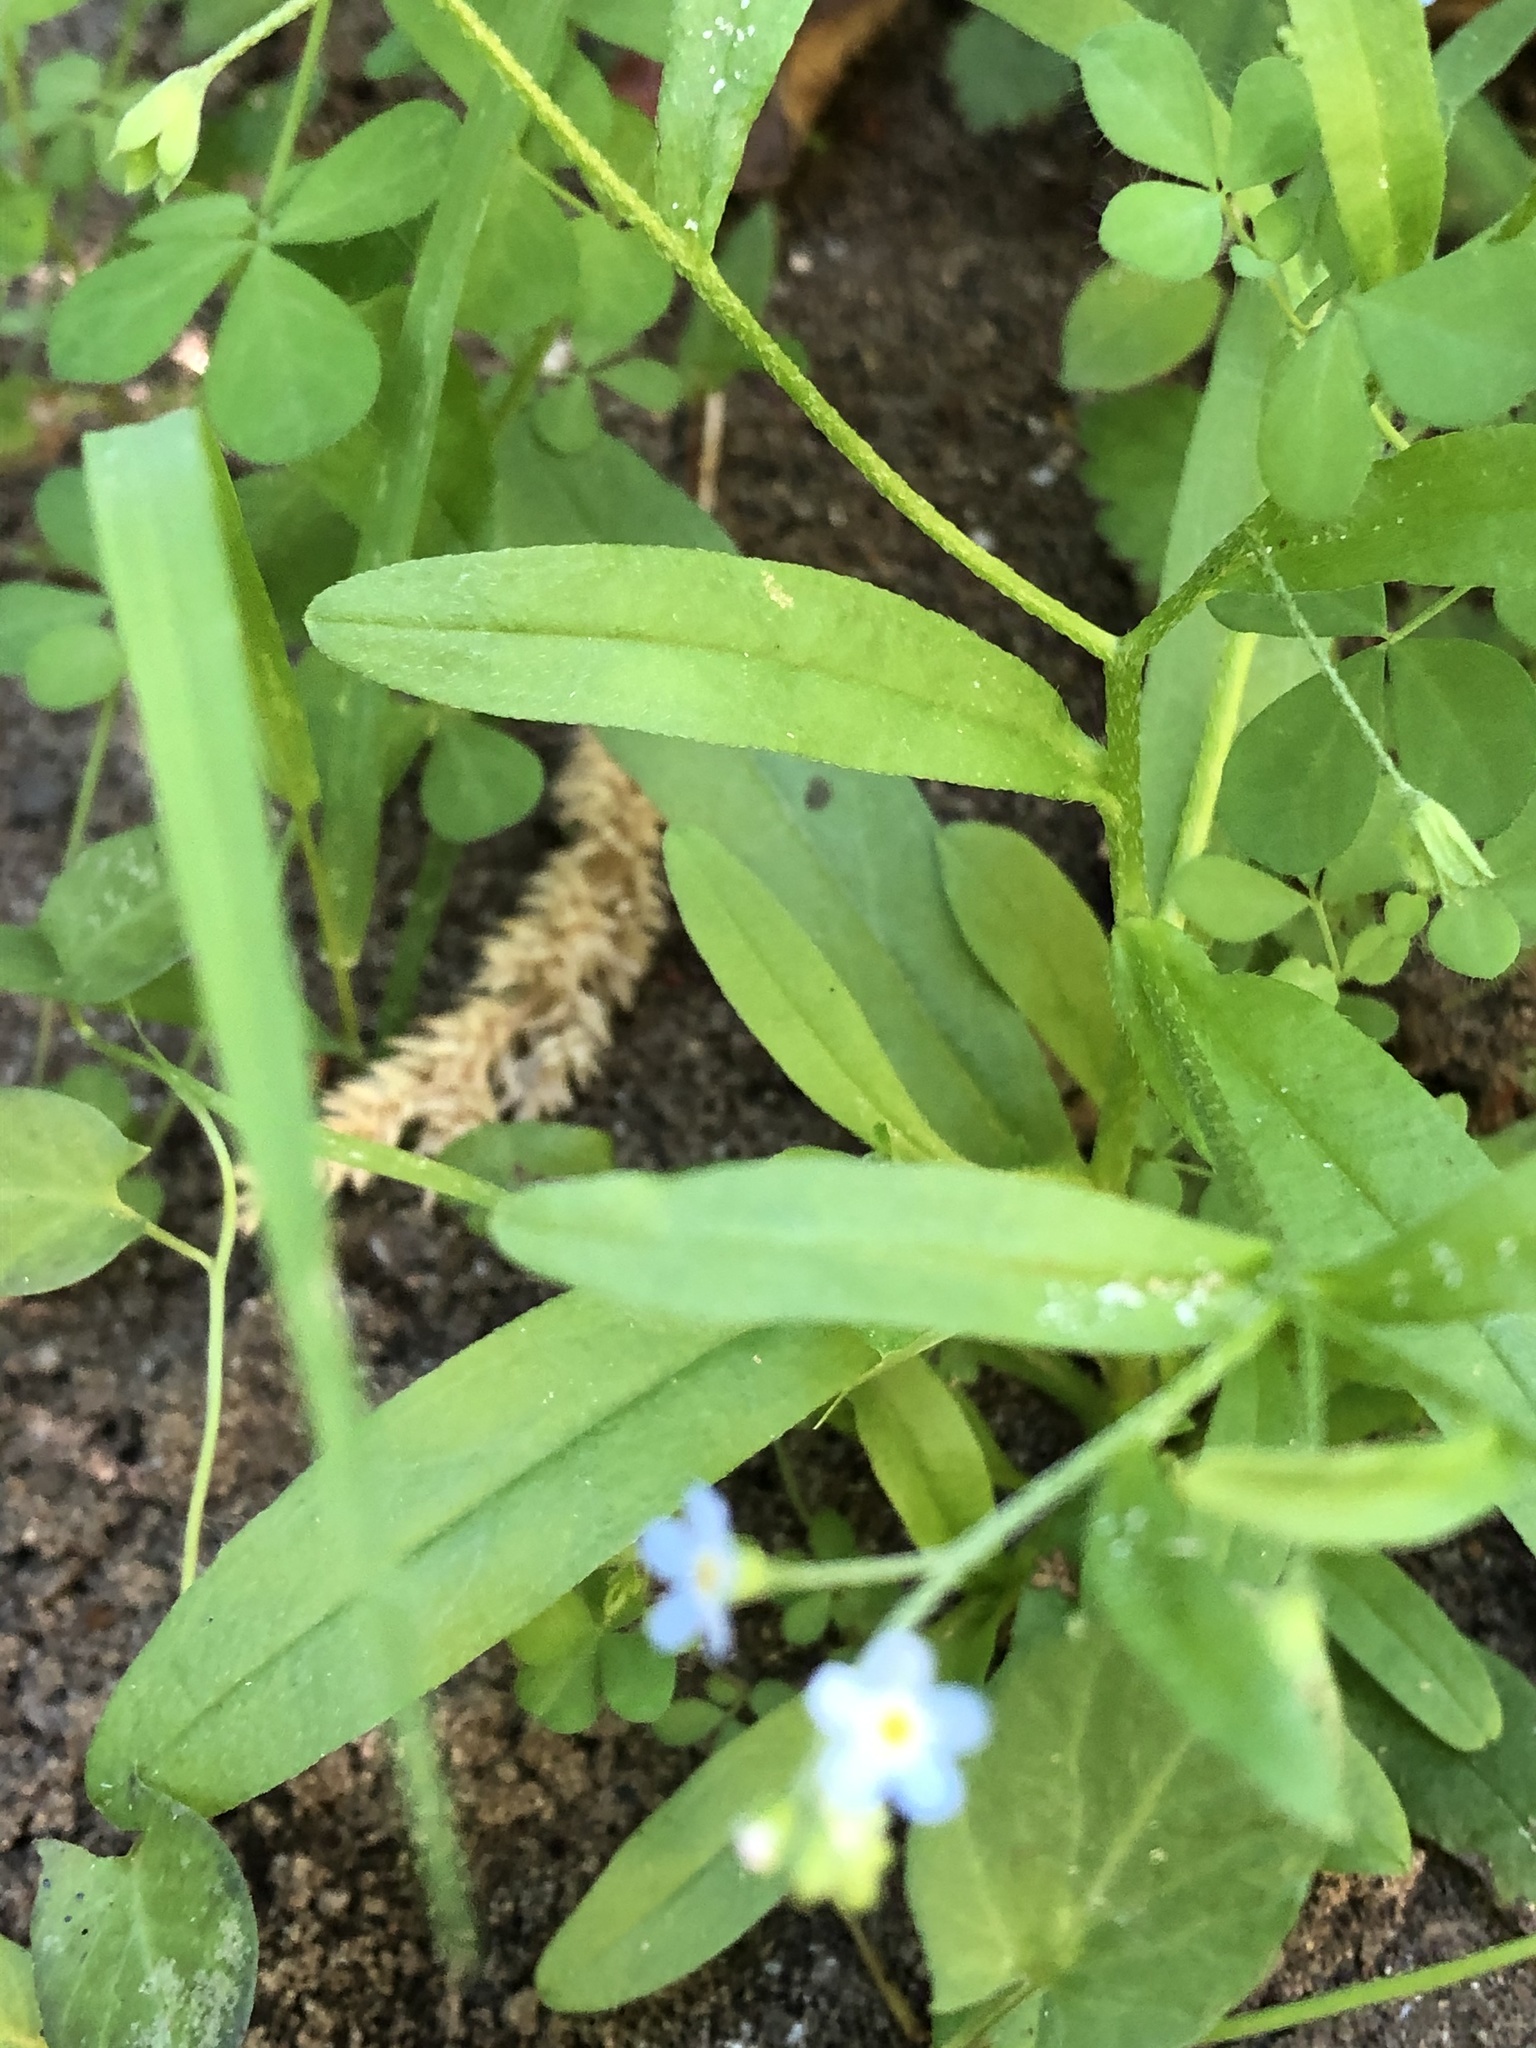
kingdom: Plantae
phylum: Tracheophyta
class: Magnoliopsida
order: Boraginales
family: Boraginaceae
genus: Myosotis
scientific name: Myosotis sylvatica
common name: Wood forget-me-not
